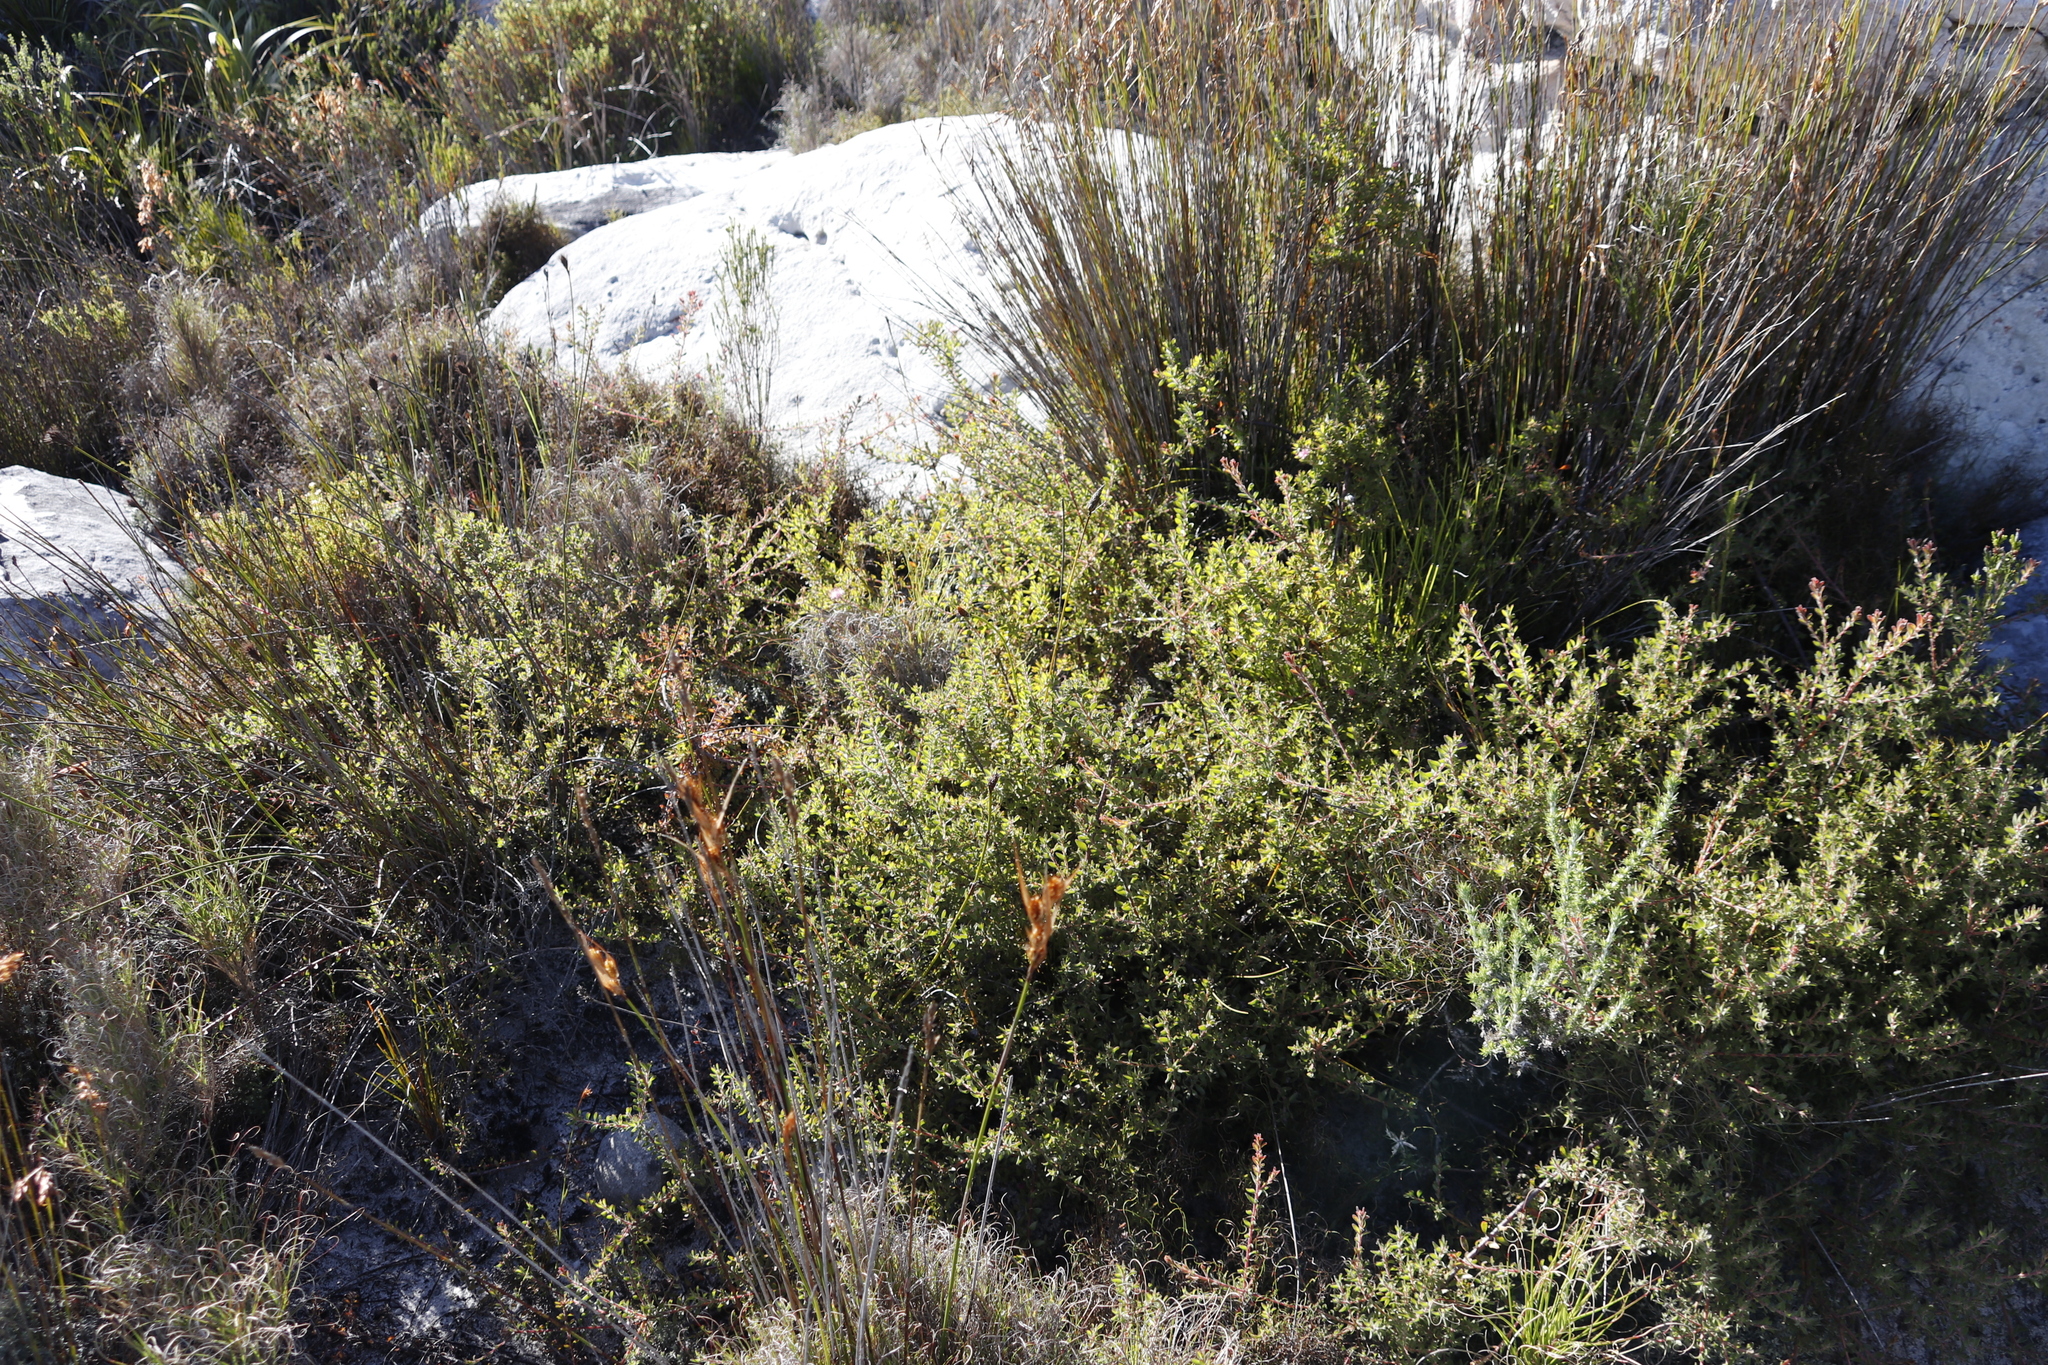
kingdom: Plantae
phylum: Tracheophyta
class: Magnoliopsida
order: Proteales
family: Proteaceae
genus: Diastella
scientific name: Diastella divaricata
